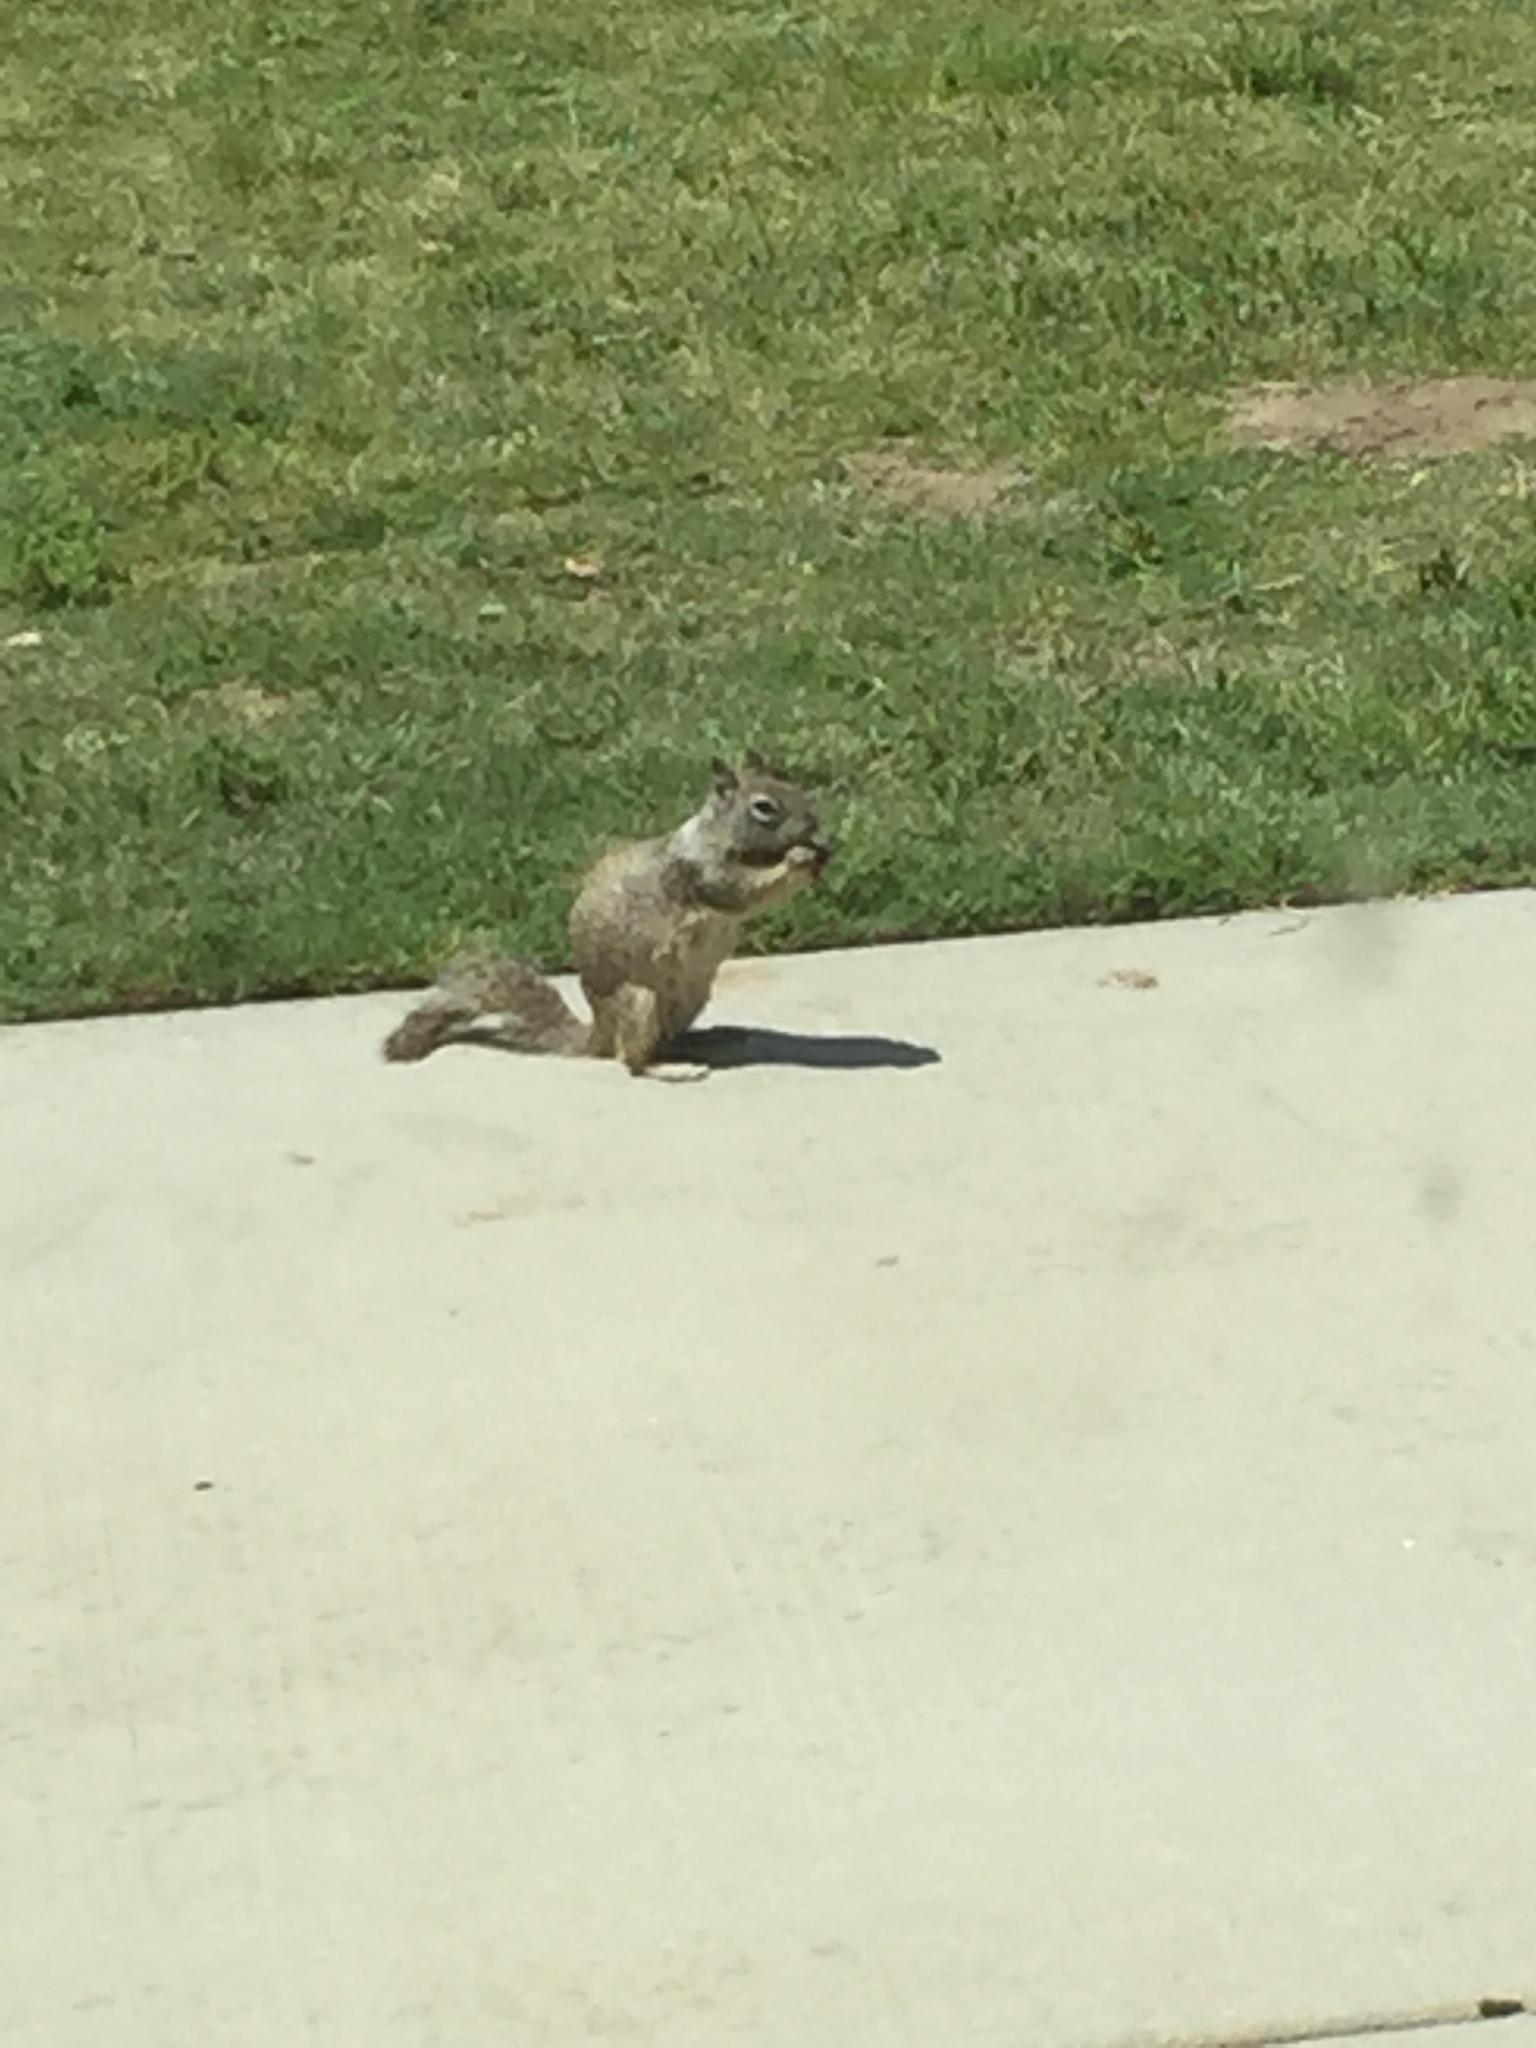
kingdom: Animalia
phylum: Chordata
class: Mammalia
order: Rodentia
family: Sciuridae
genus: Otospermophilus
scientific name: Otospermophilus beecheyi
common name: California ground squirrel
